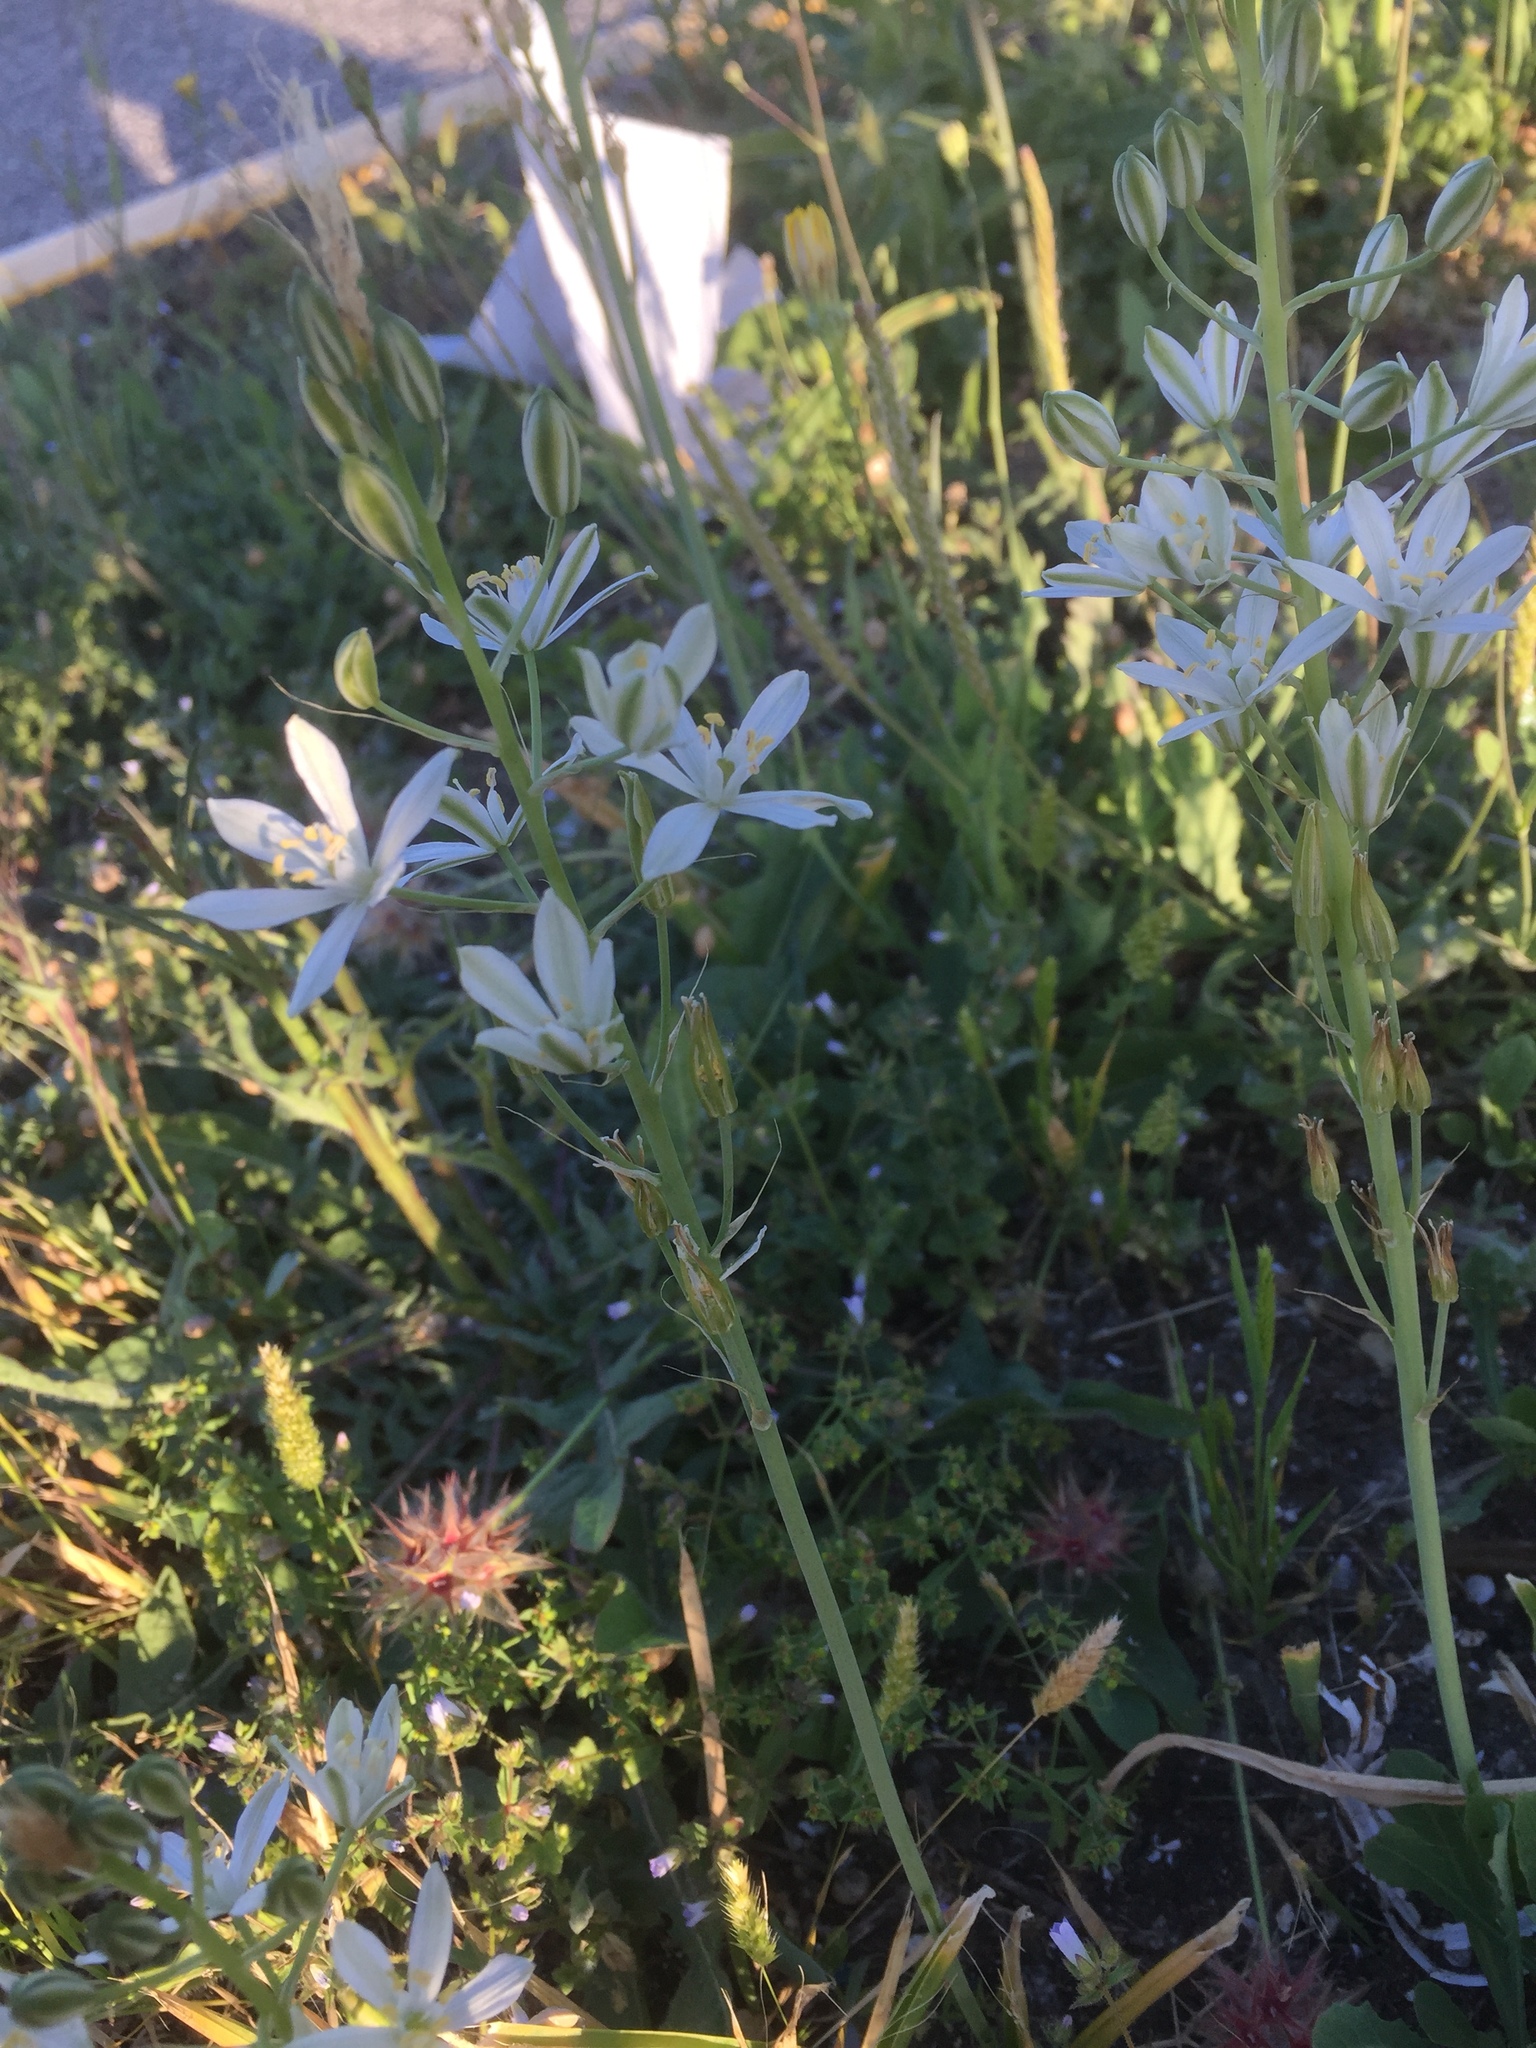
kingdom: Plantae
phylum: Tracheophyta
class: Liliopsida
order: Asparagales
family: Asparagaceae
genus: Ornithogalum
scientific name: Ornithogalum narbonense
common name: Bath-asparagus
